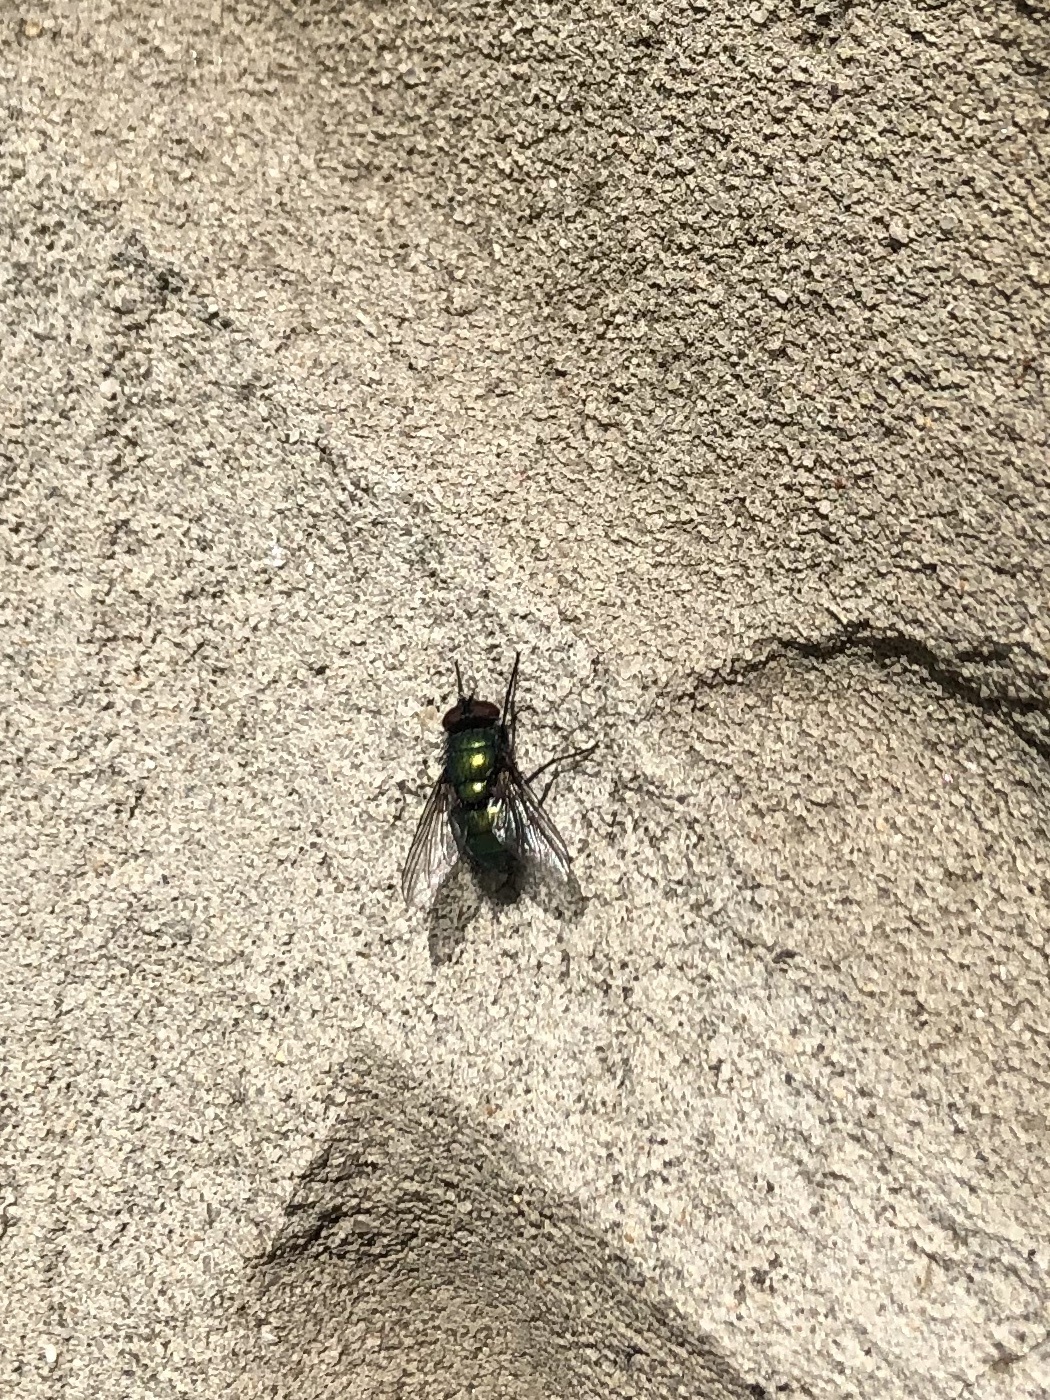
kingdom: Animalia
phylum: Arthropoda
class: Insecta
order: Diptera
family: Calliphoridae
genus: Lucilia
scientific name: Lucilia sericata
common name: Blow fly
